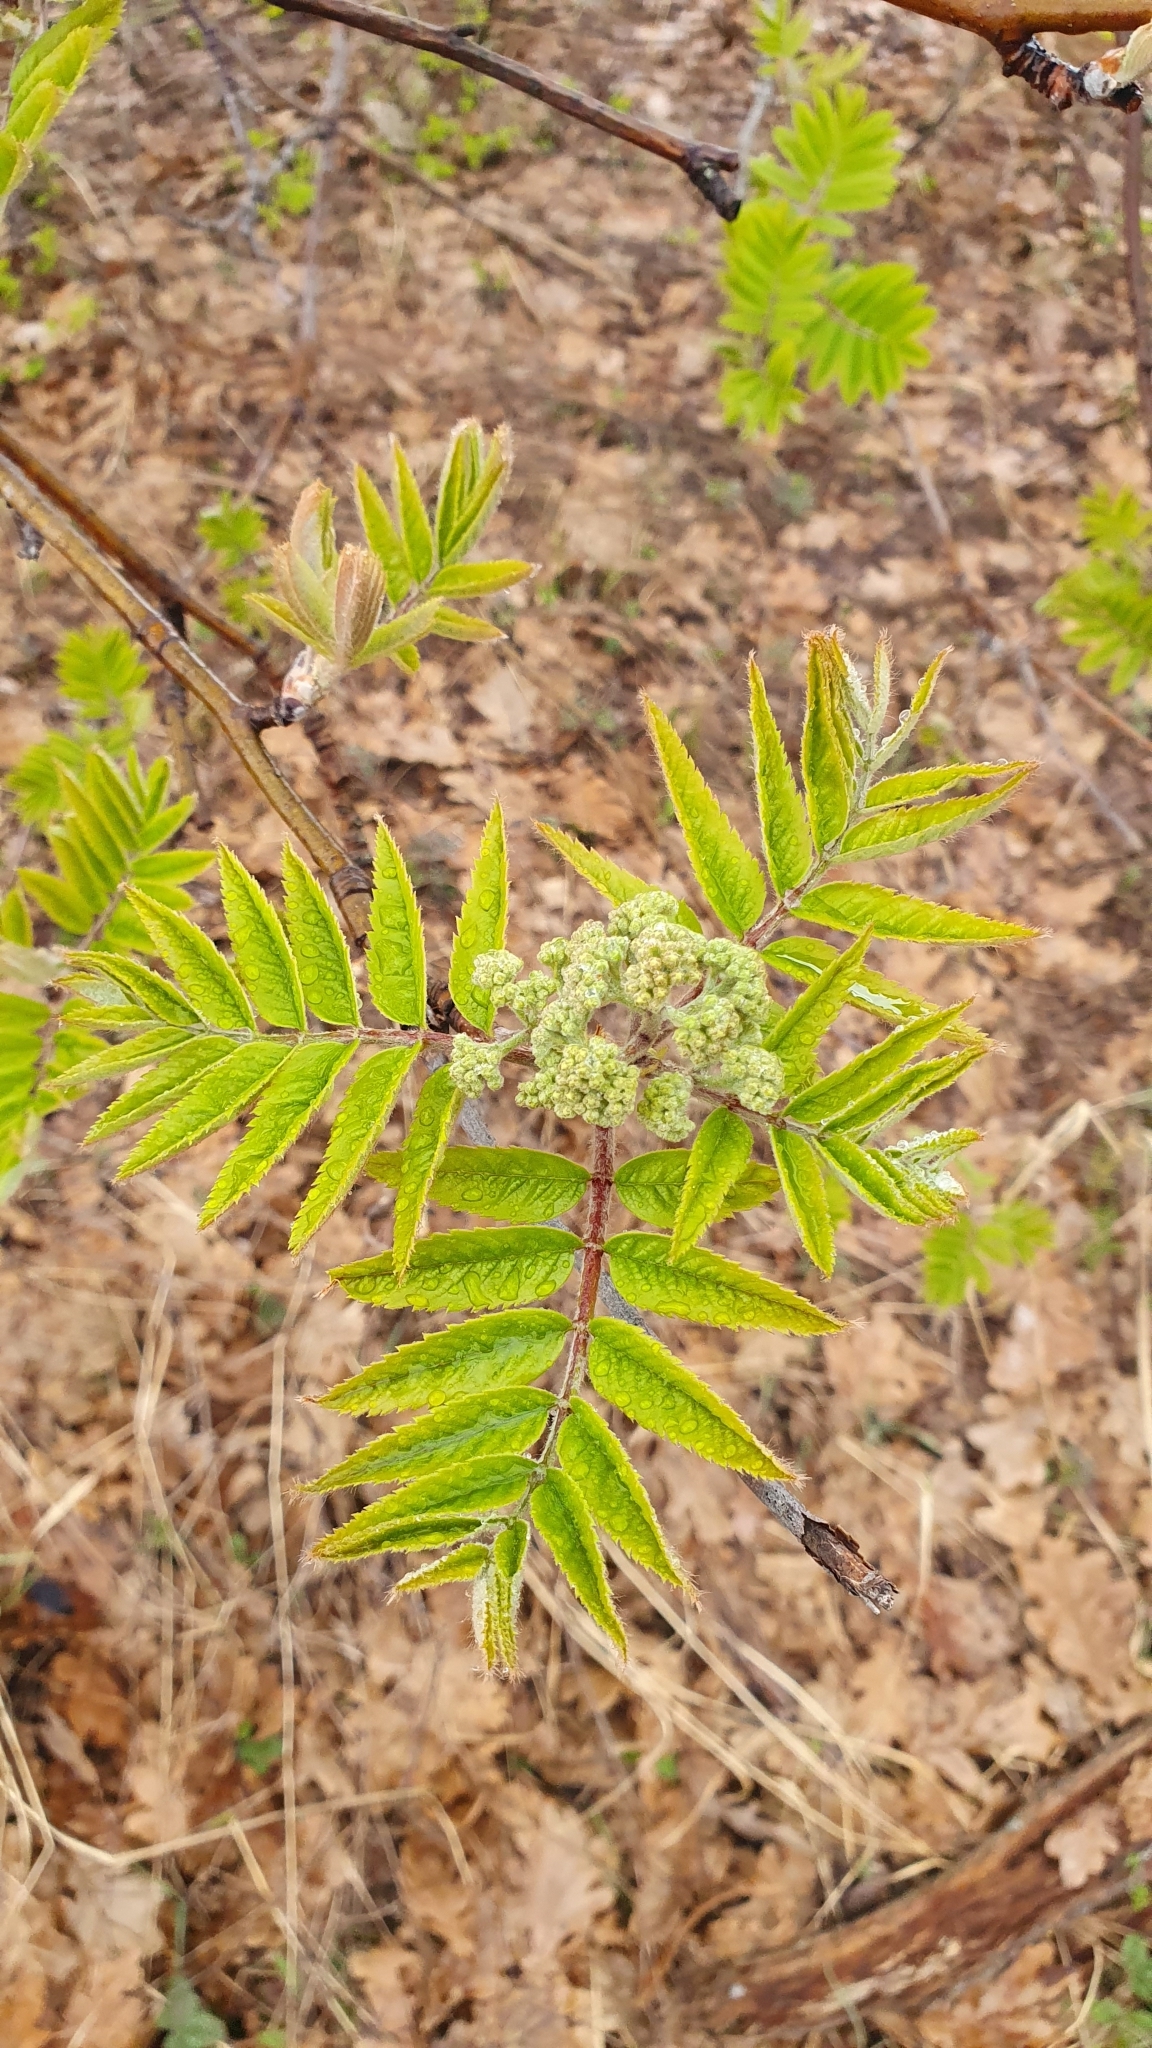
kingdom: Plantae
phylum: Tracheophyta
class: Magnoliopsida
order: Rosales
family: Rosaceae
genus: Sorbus
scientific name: Sorbus aucuparia
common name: Rowan
